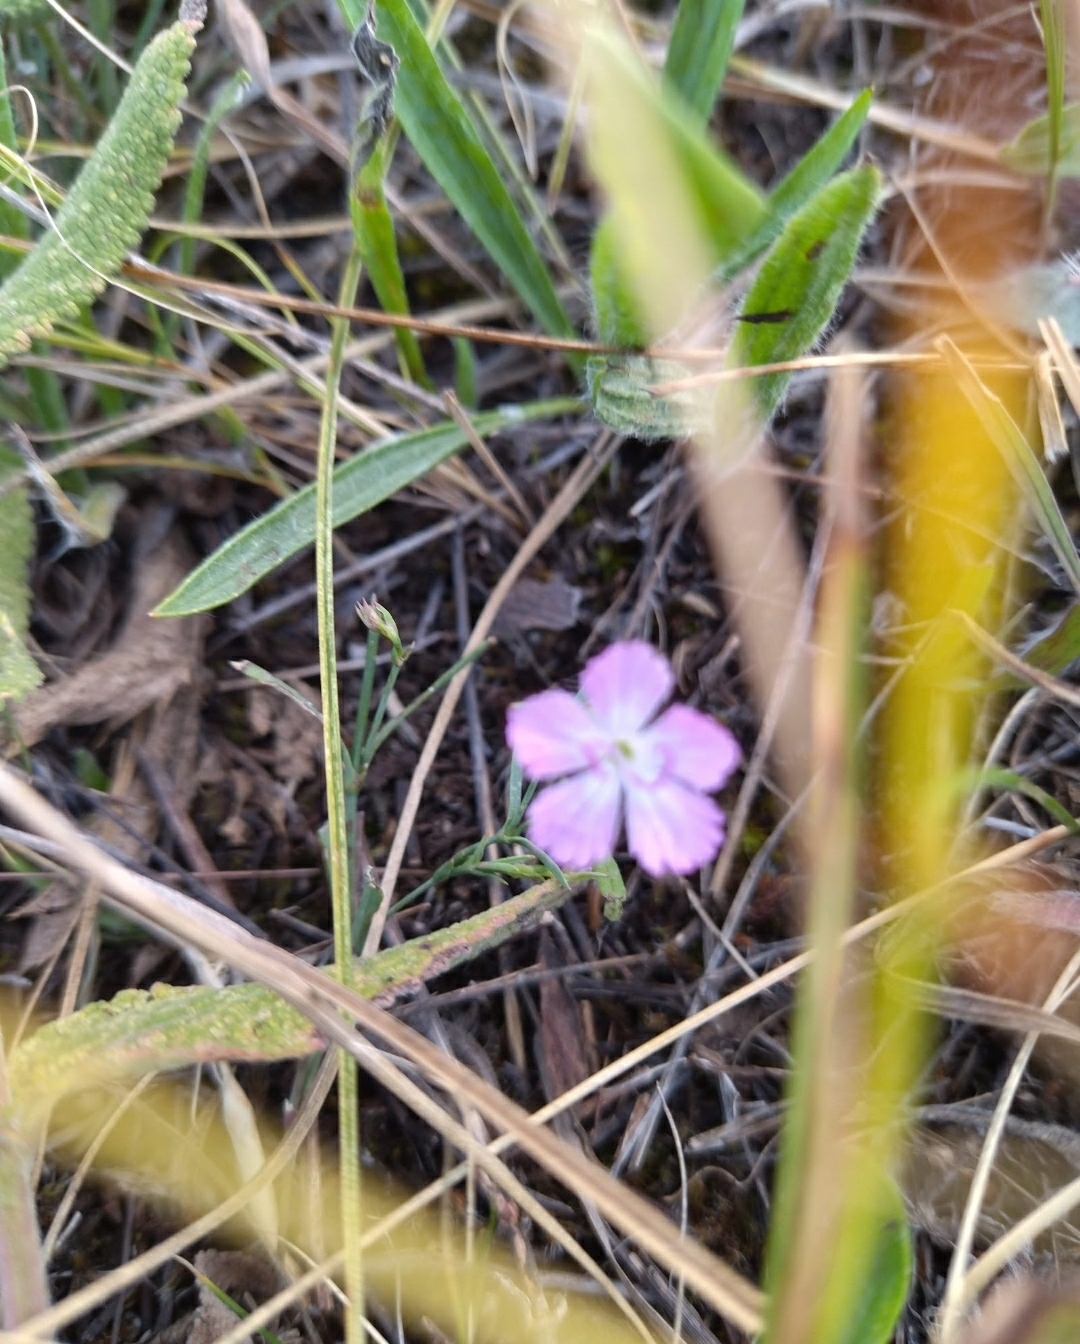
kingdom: Plantae
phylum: Tracheophyta
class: Magnoliopsida
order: Caryophyllales
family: Caryophyllaceae
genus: Dianthus
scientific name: Dianthus campestris
